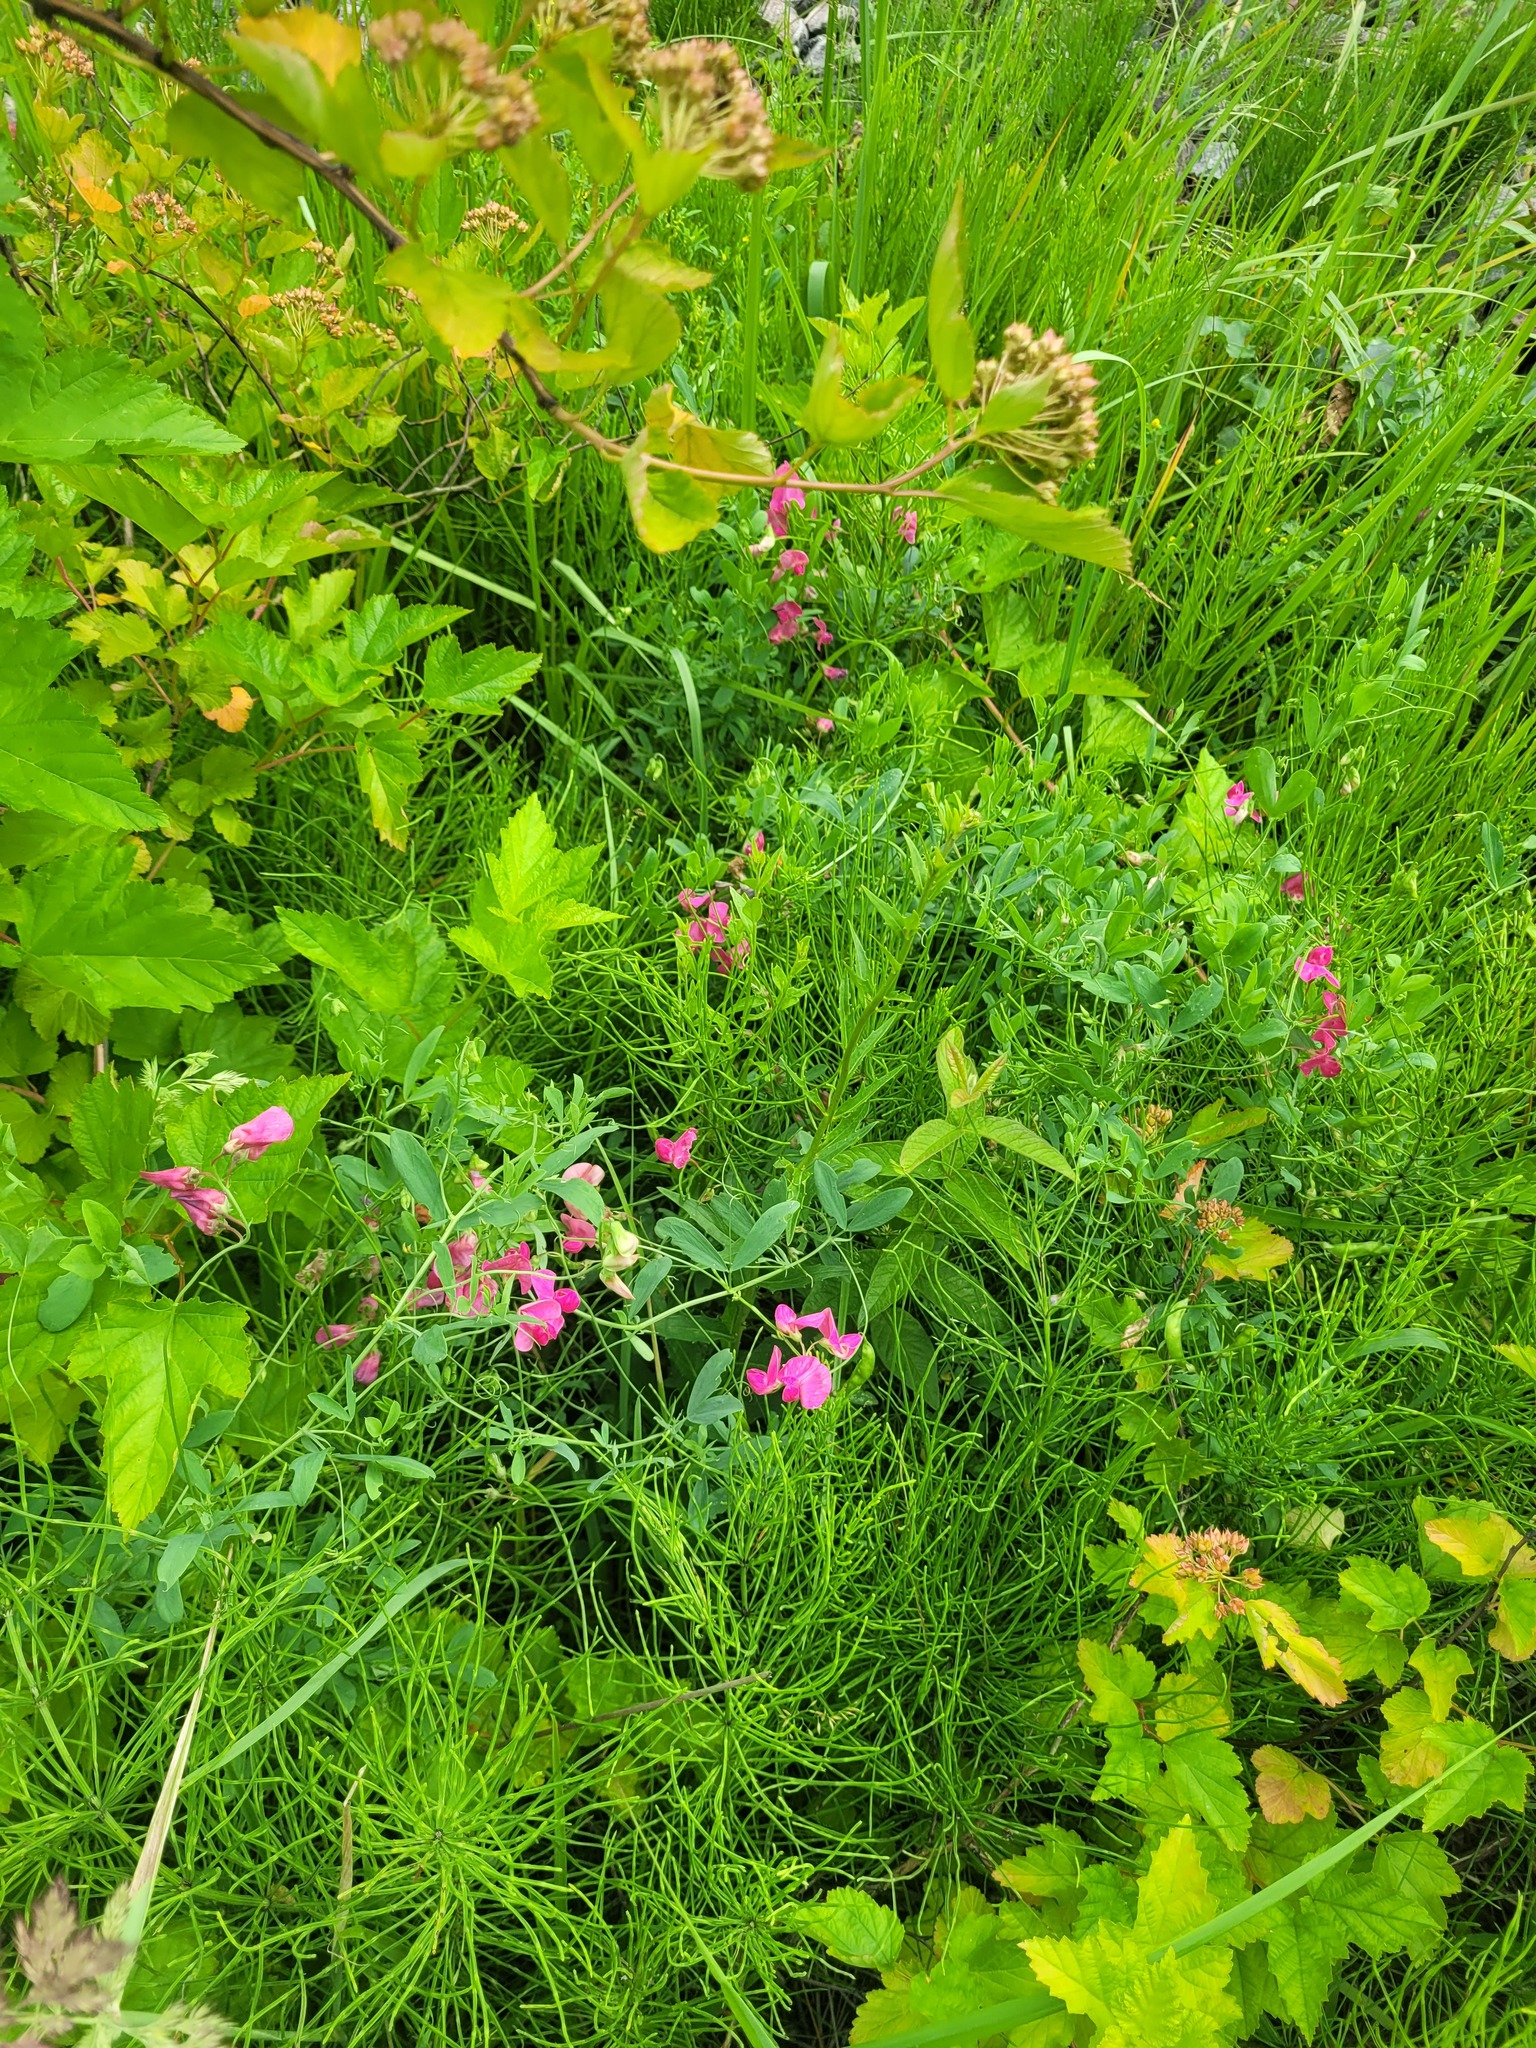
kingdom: Plantae
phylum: Tracheophyta
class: Magnoliopsida
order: Fabales
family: Fabaceae
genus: Lathyrus
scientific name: Lathyrus tuberosus
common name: Tuberous pea
